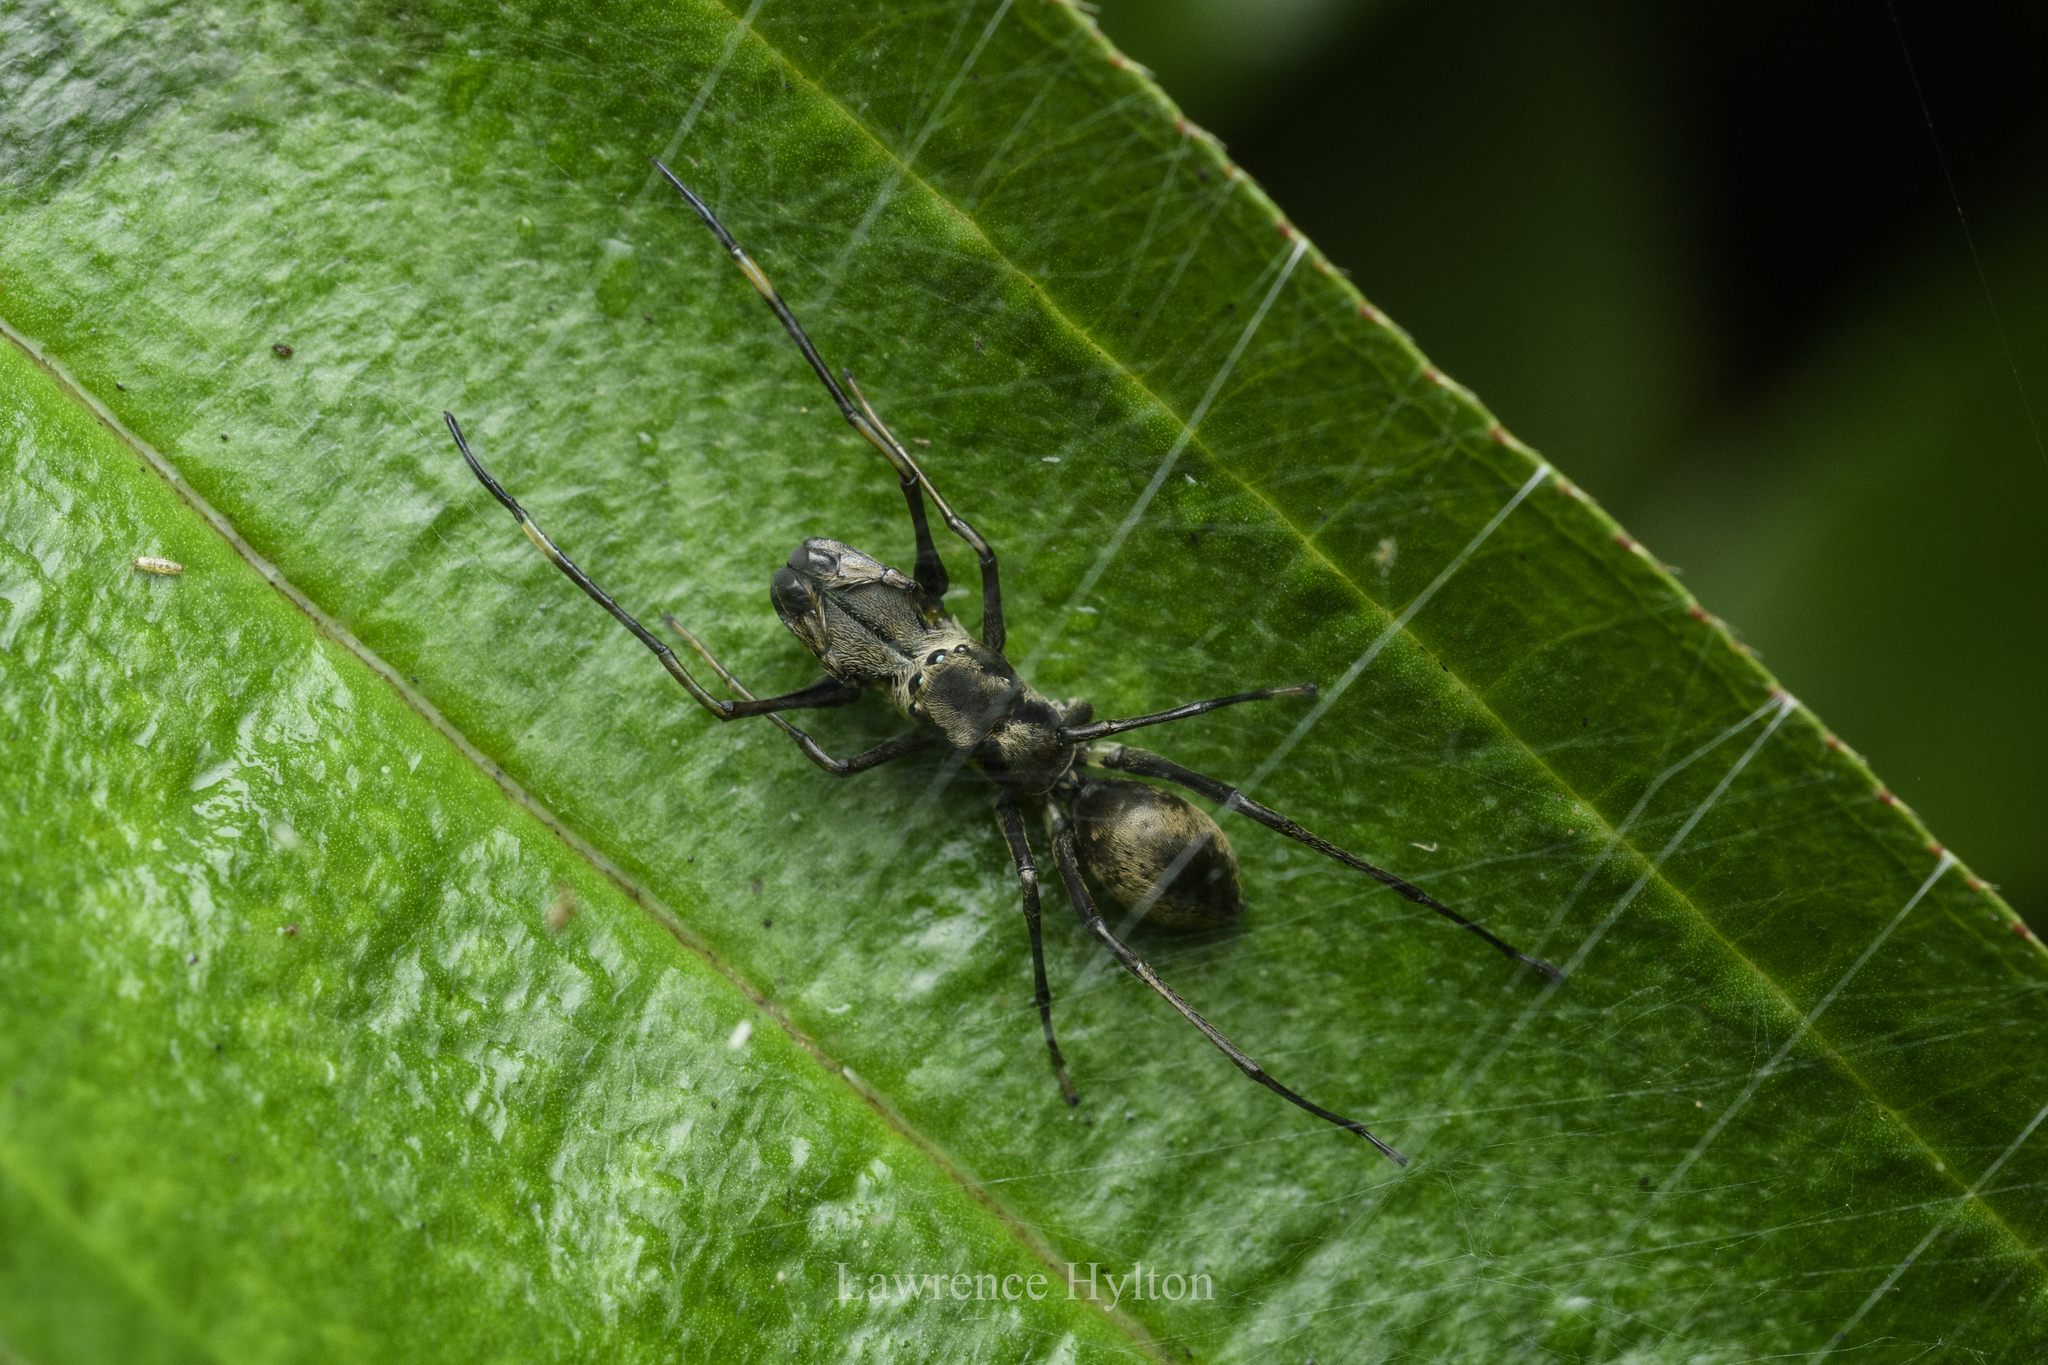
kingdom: Animalia
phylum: Arthropoda
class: Arachnida
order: Araneae
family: Salticidae
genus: Toxeus
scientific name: Toxeus maxillosus
